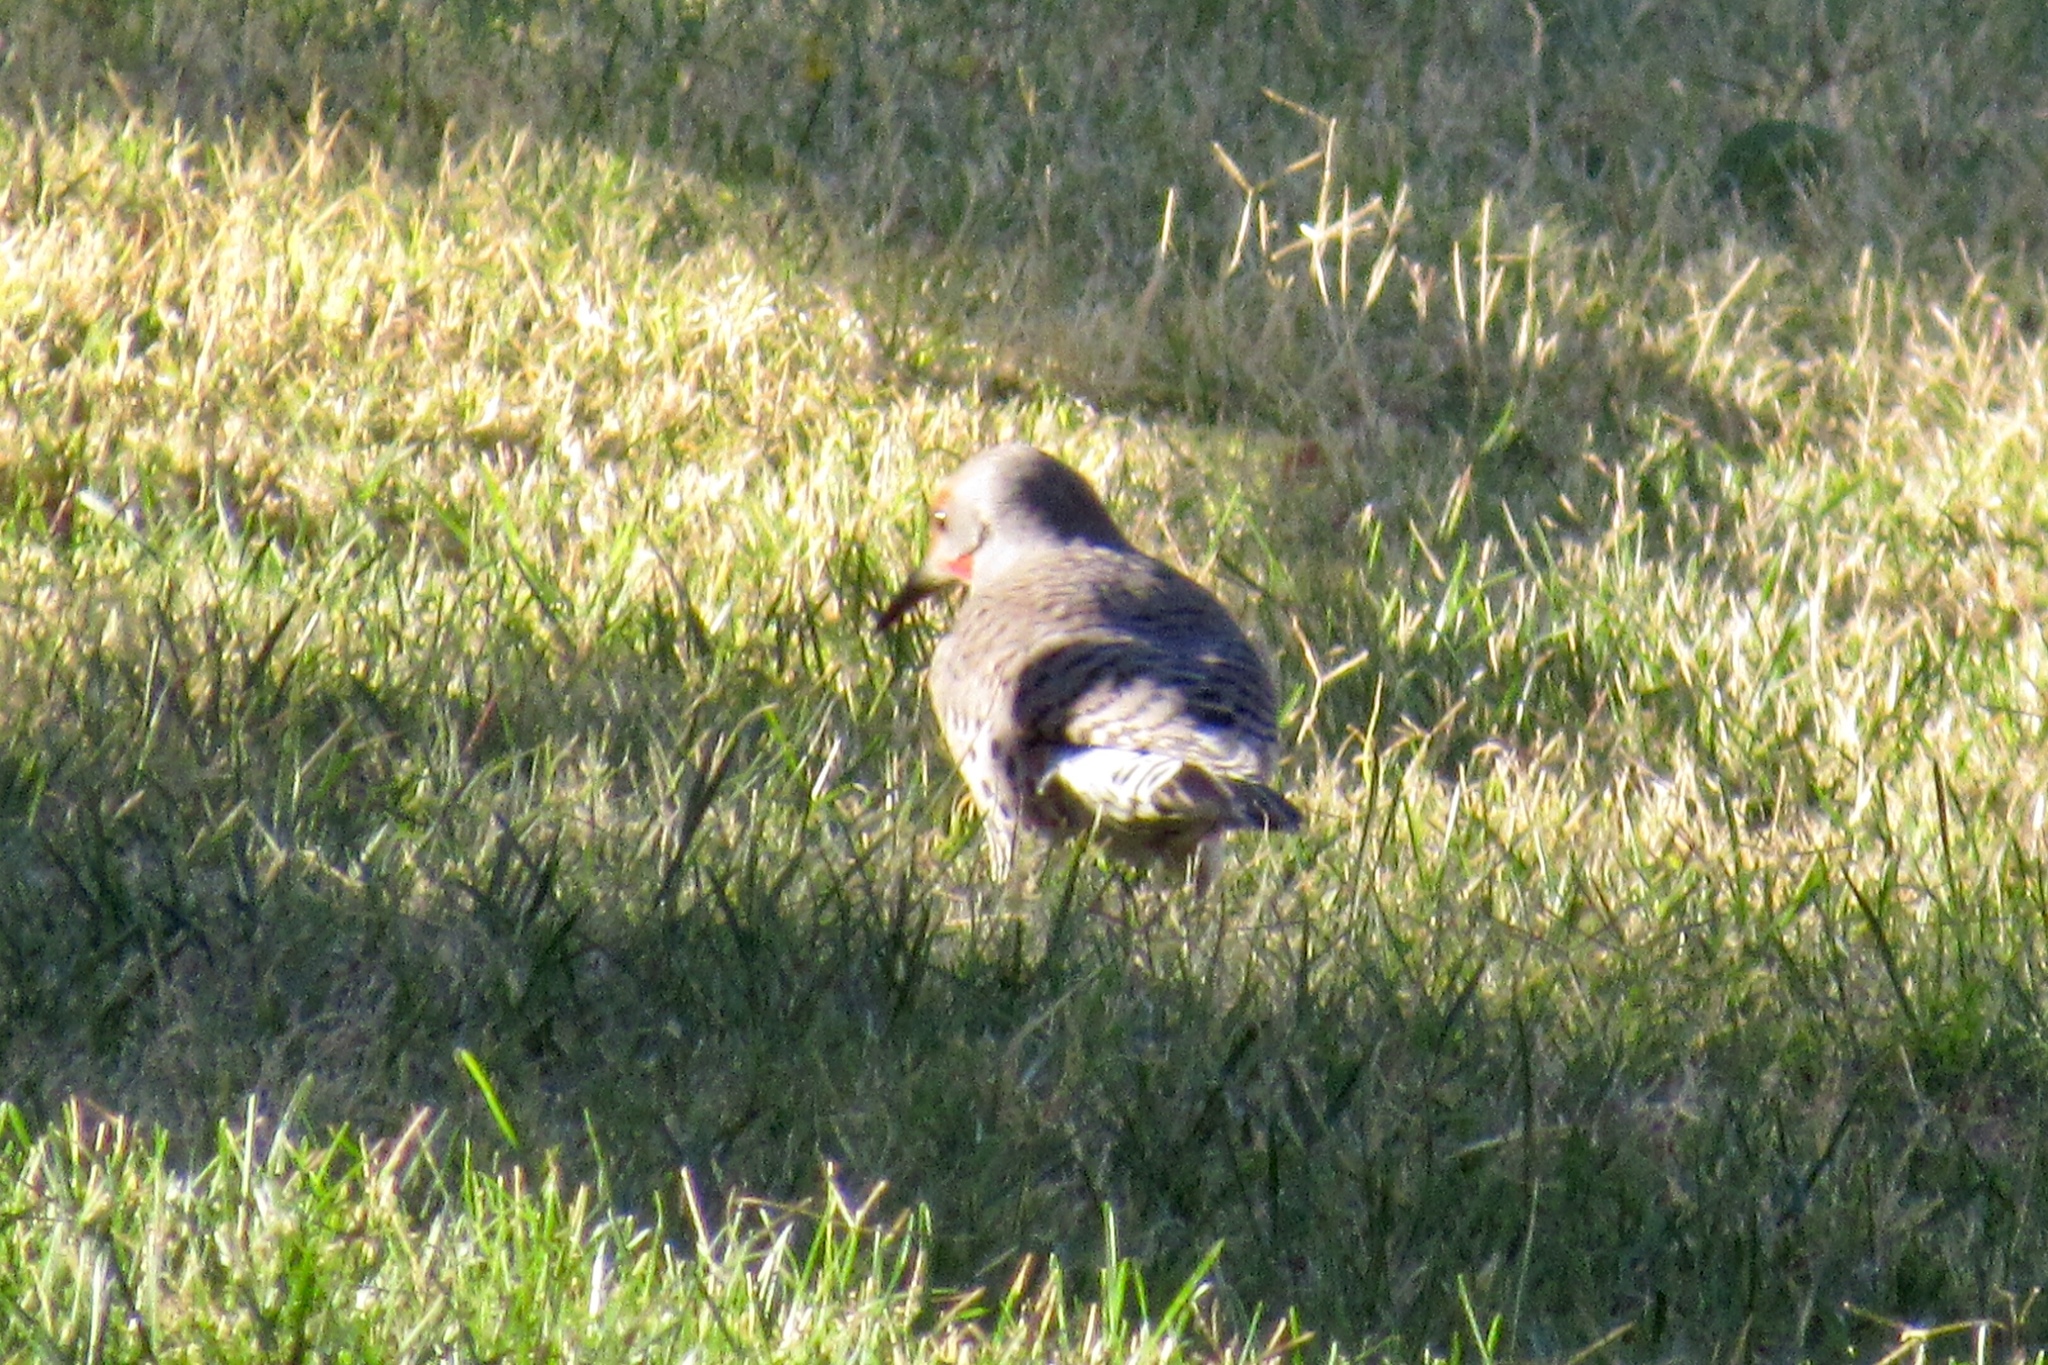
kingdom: Animalia
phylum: Chordata
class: Aves
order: Piciformes
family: Picidae
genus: Colaptes
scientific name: Colaptes auratus
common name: Northern flicker
